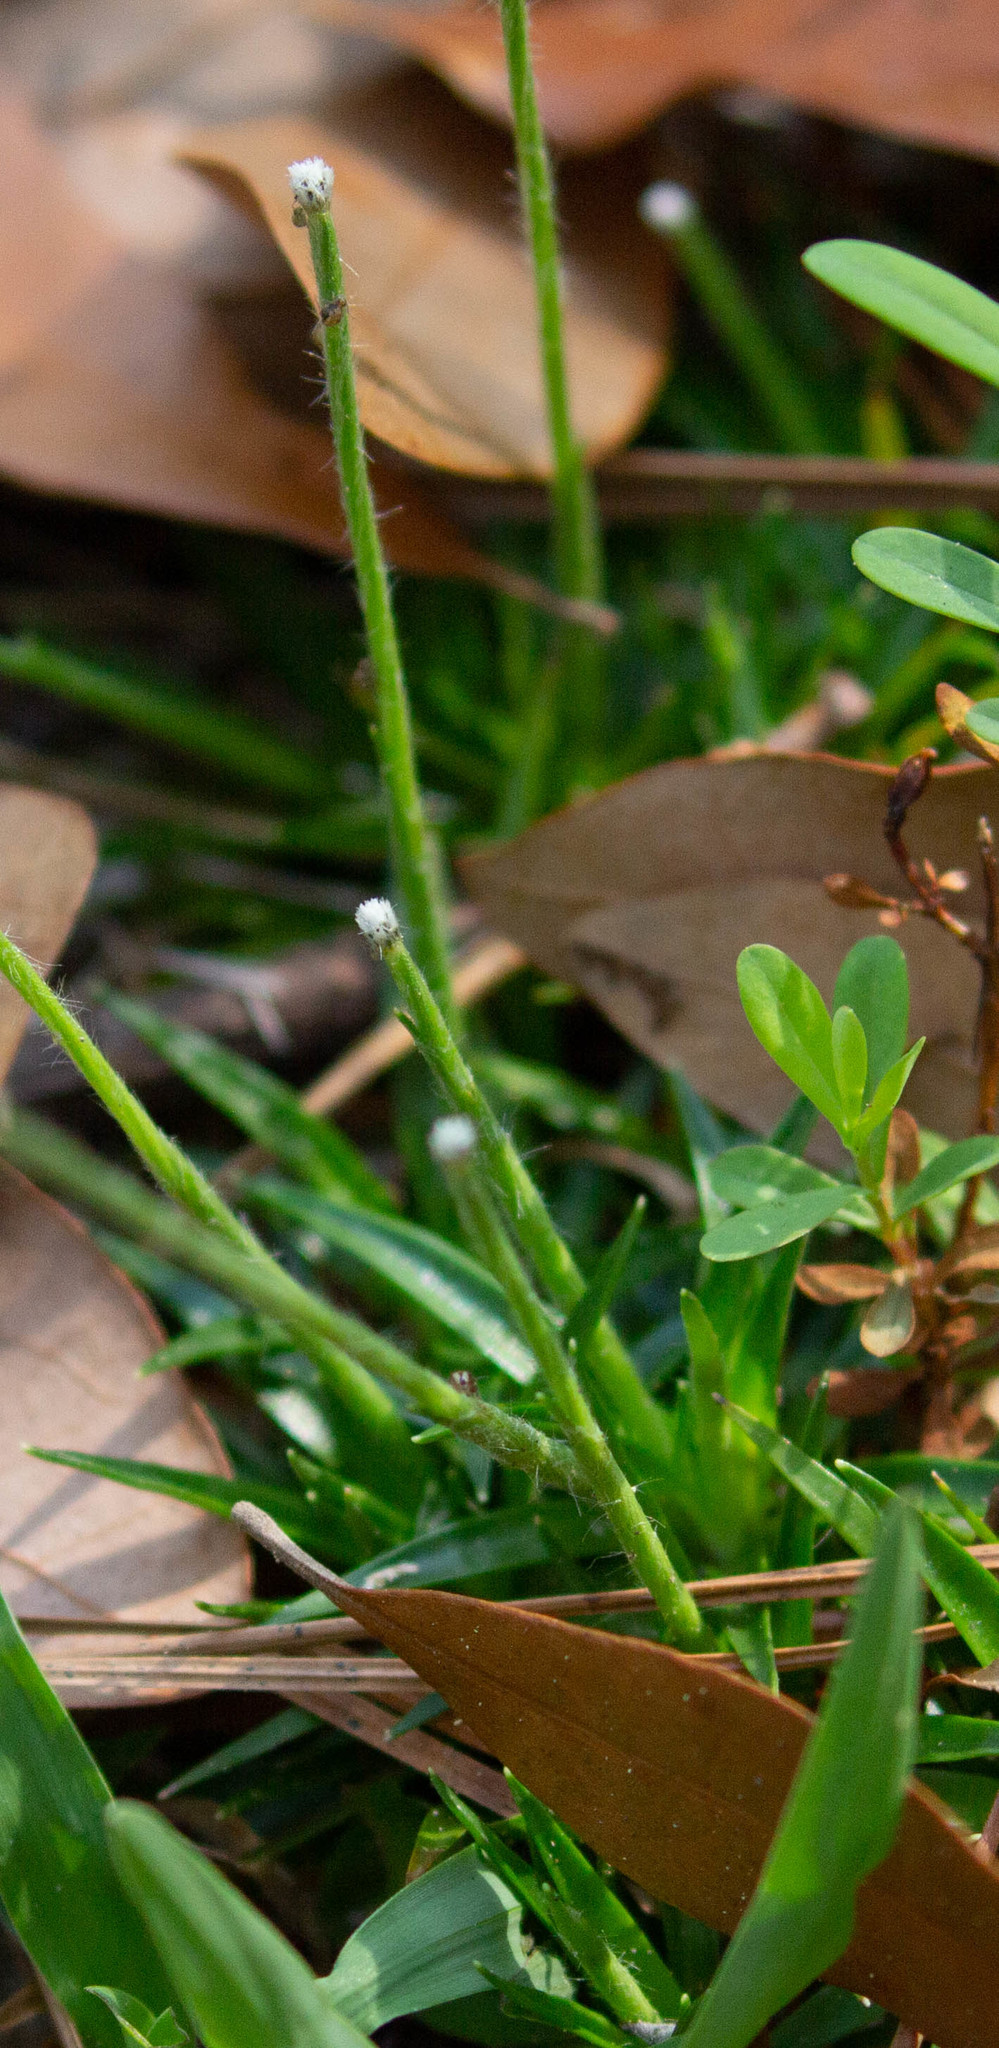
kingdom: Plantae
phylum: Tracheophyta
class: Liliopsida
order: Poales
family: Eriocaulaceae
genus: Paepalanthus
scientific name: Paepalanthus anceps
